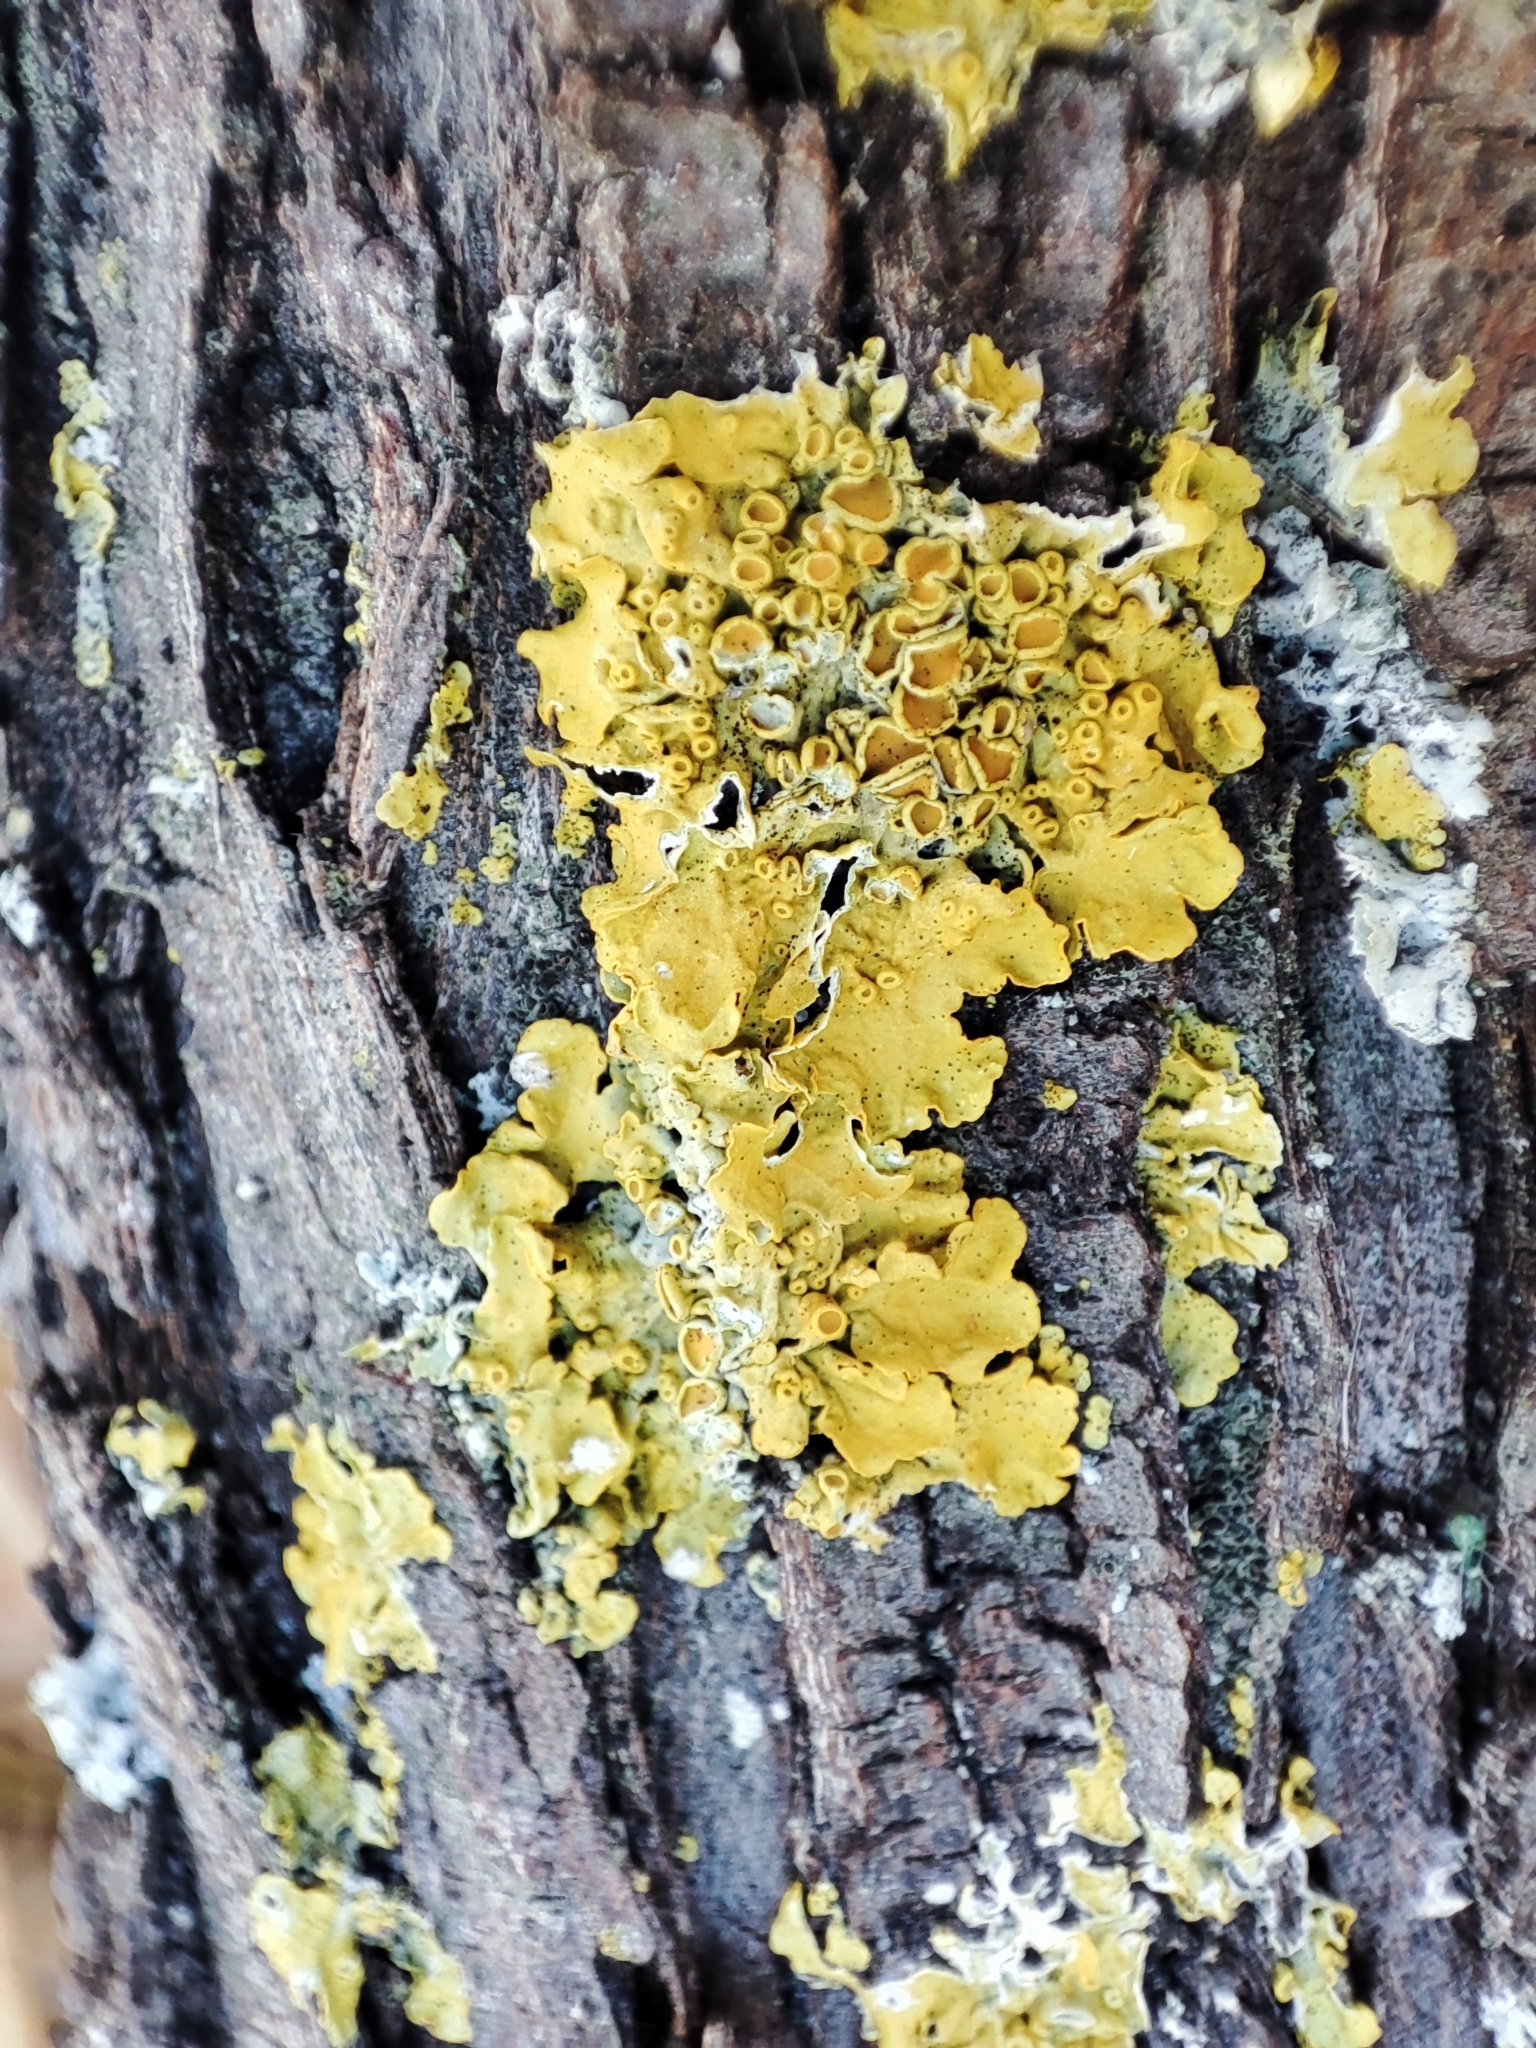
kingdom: Fungi
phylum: Ascomycota
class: Lecanoromycetes
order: Teloschistales
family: Teloschistaceae
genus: Xanthoria
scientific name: Xanthoria parietina
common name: Common orange lichen
